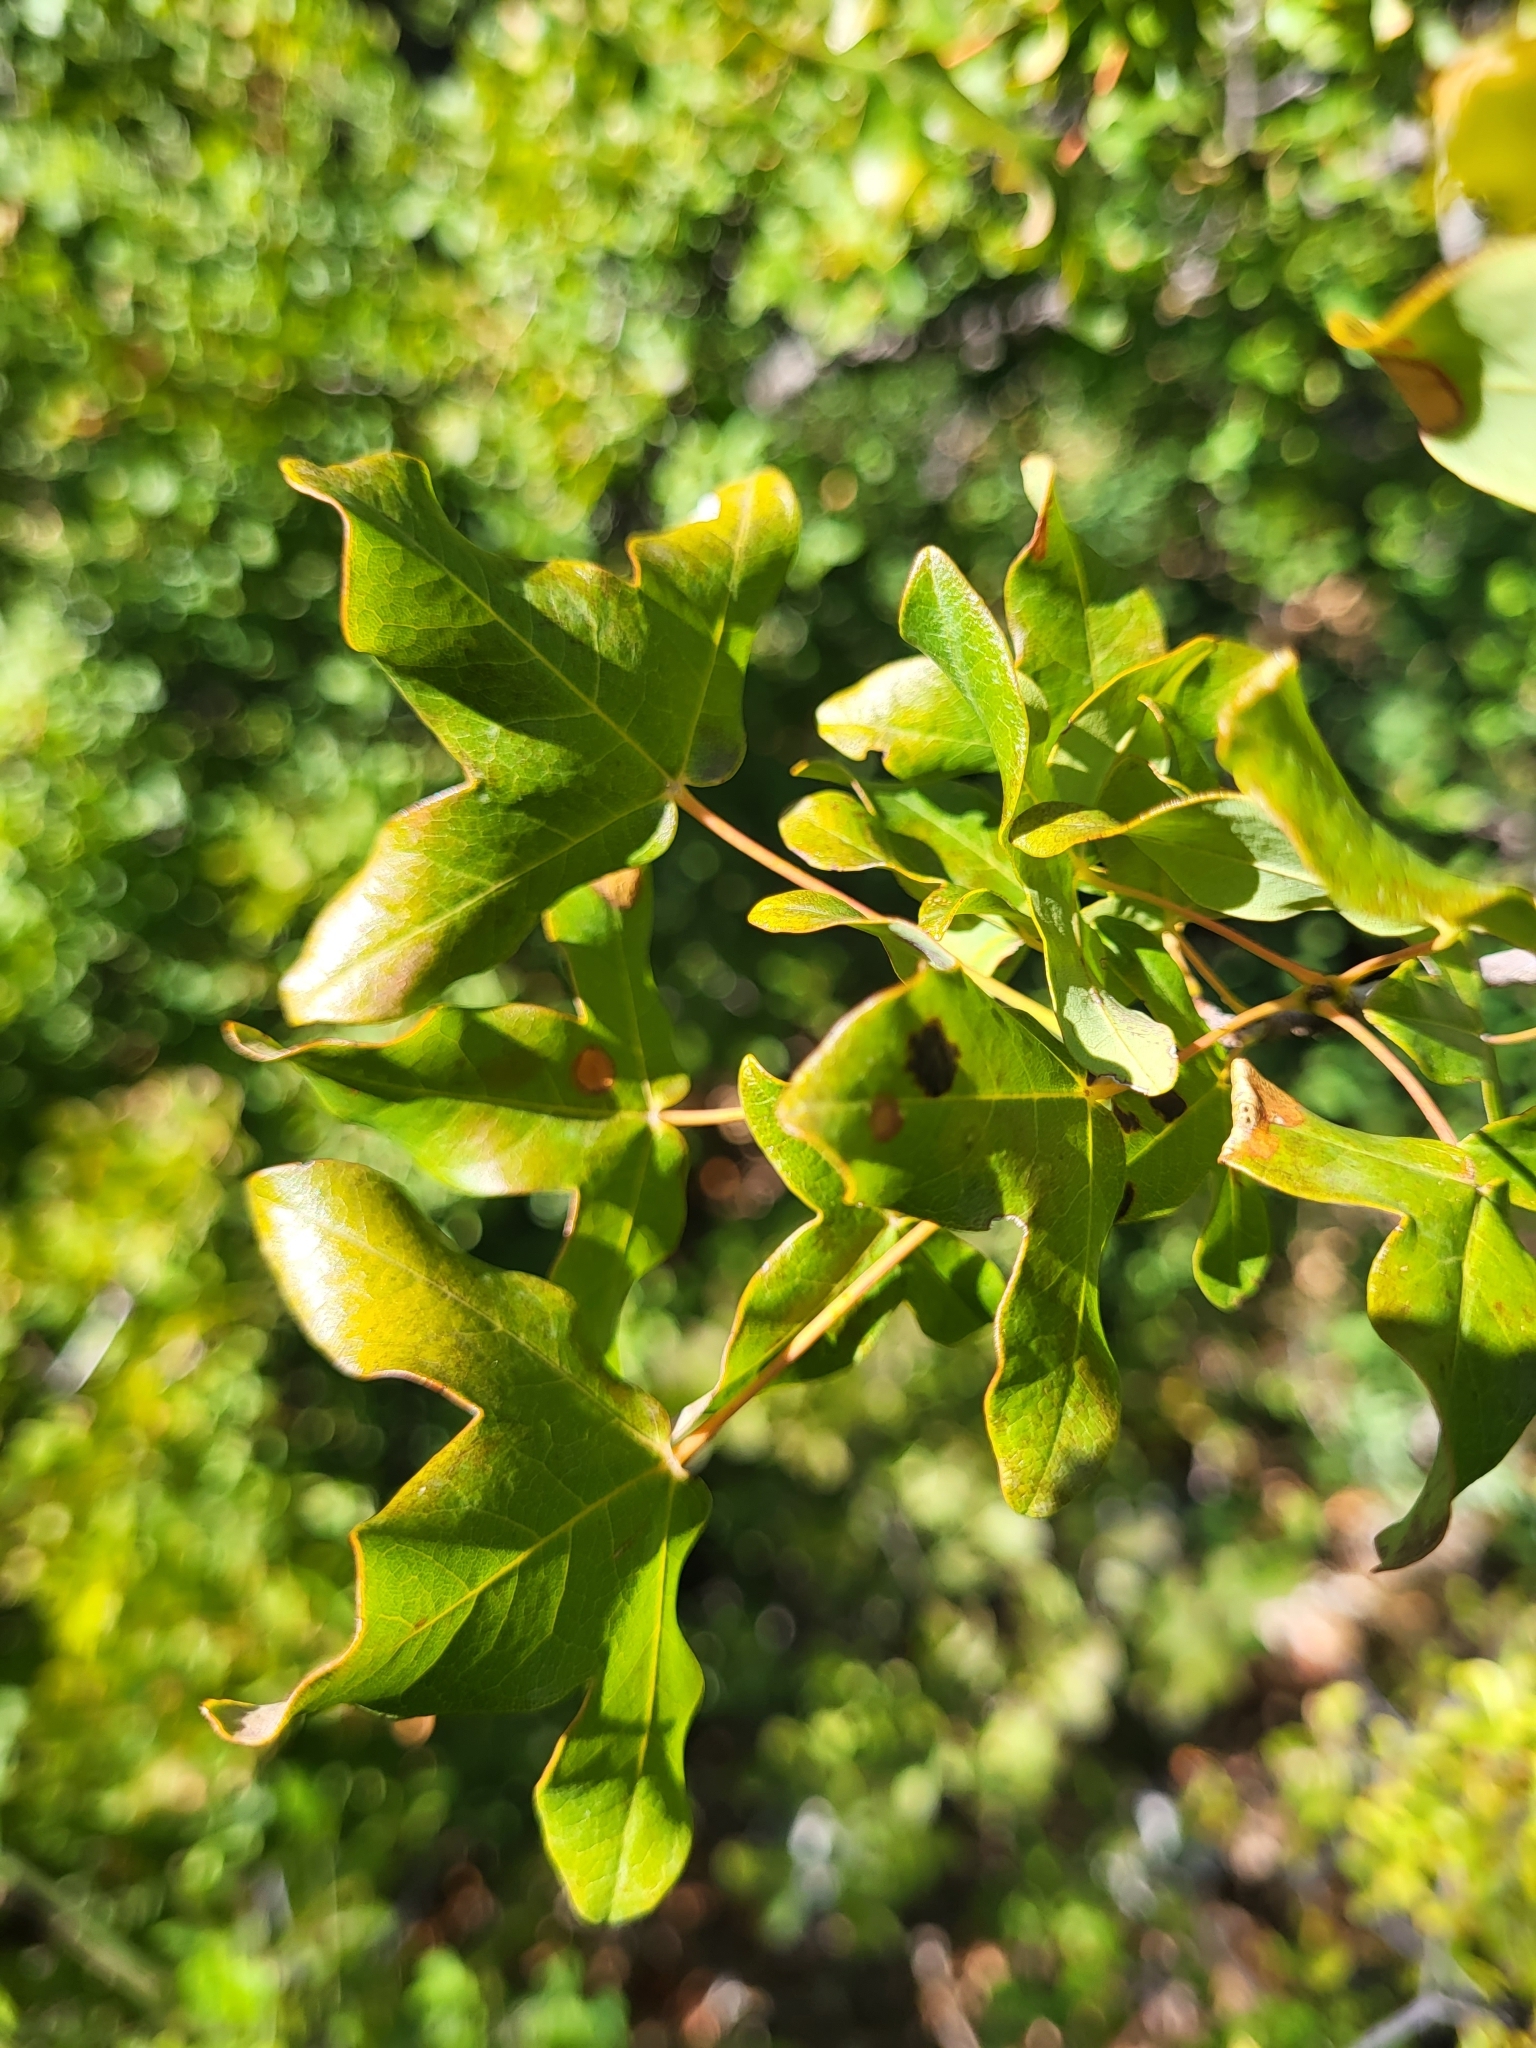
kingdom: Plantae
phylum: Tracheophyta
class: Magnoliopsida
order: Sapindales
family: Sapindaceae
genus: Acer
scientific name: Acer monspessulanum
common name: Montpellier maple
